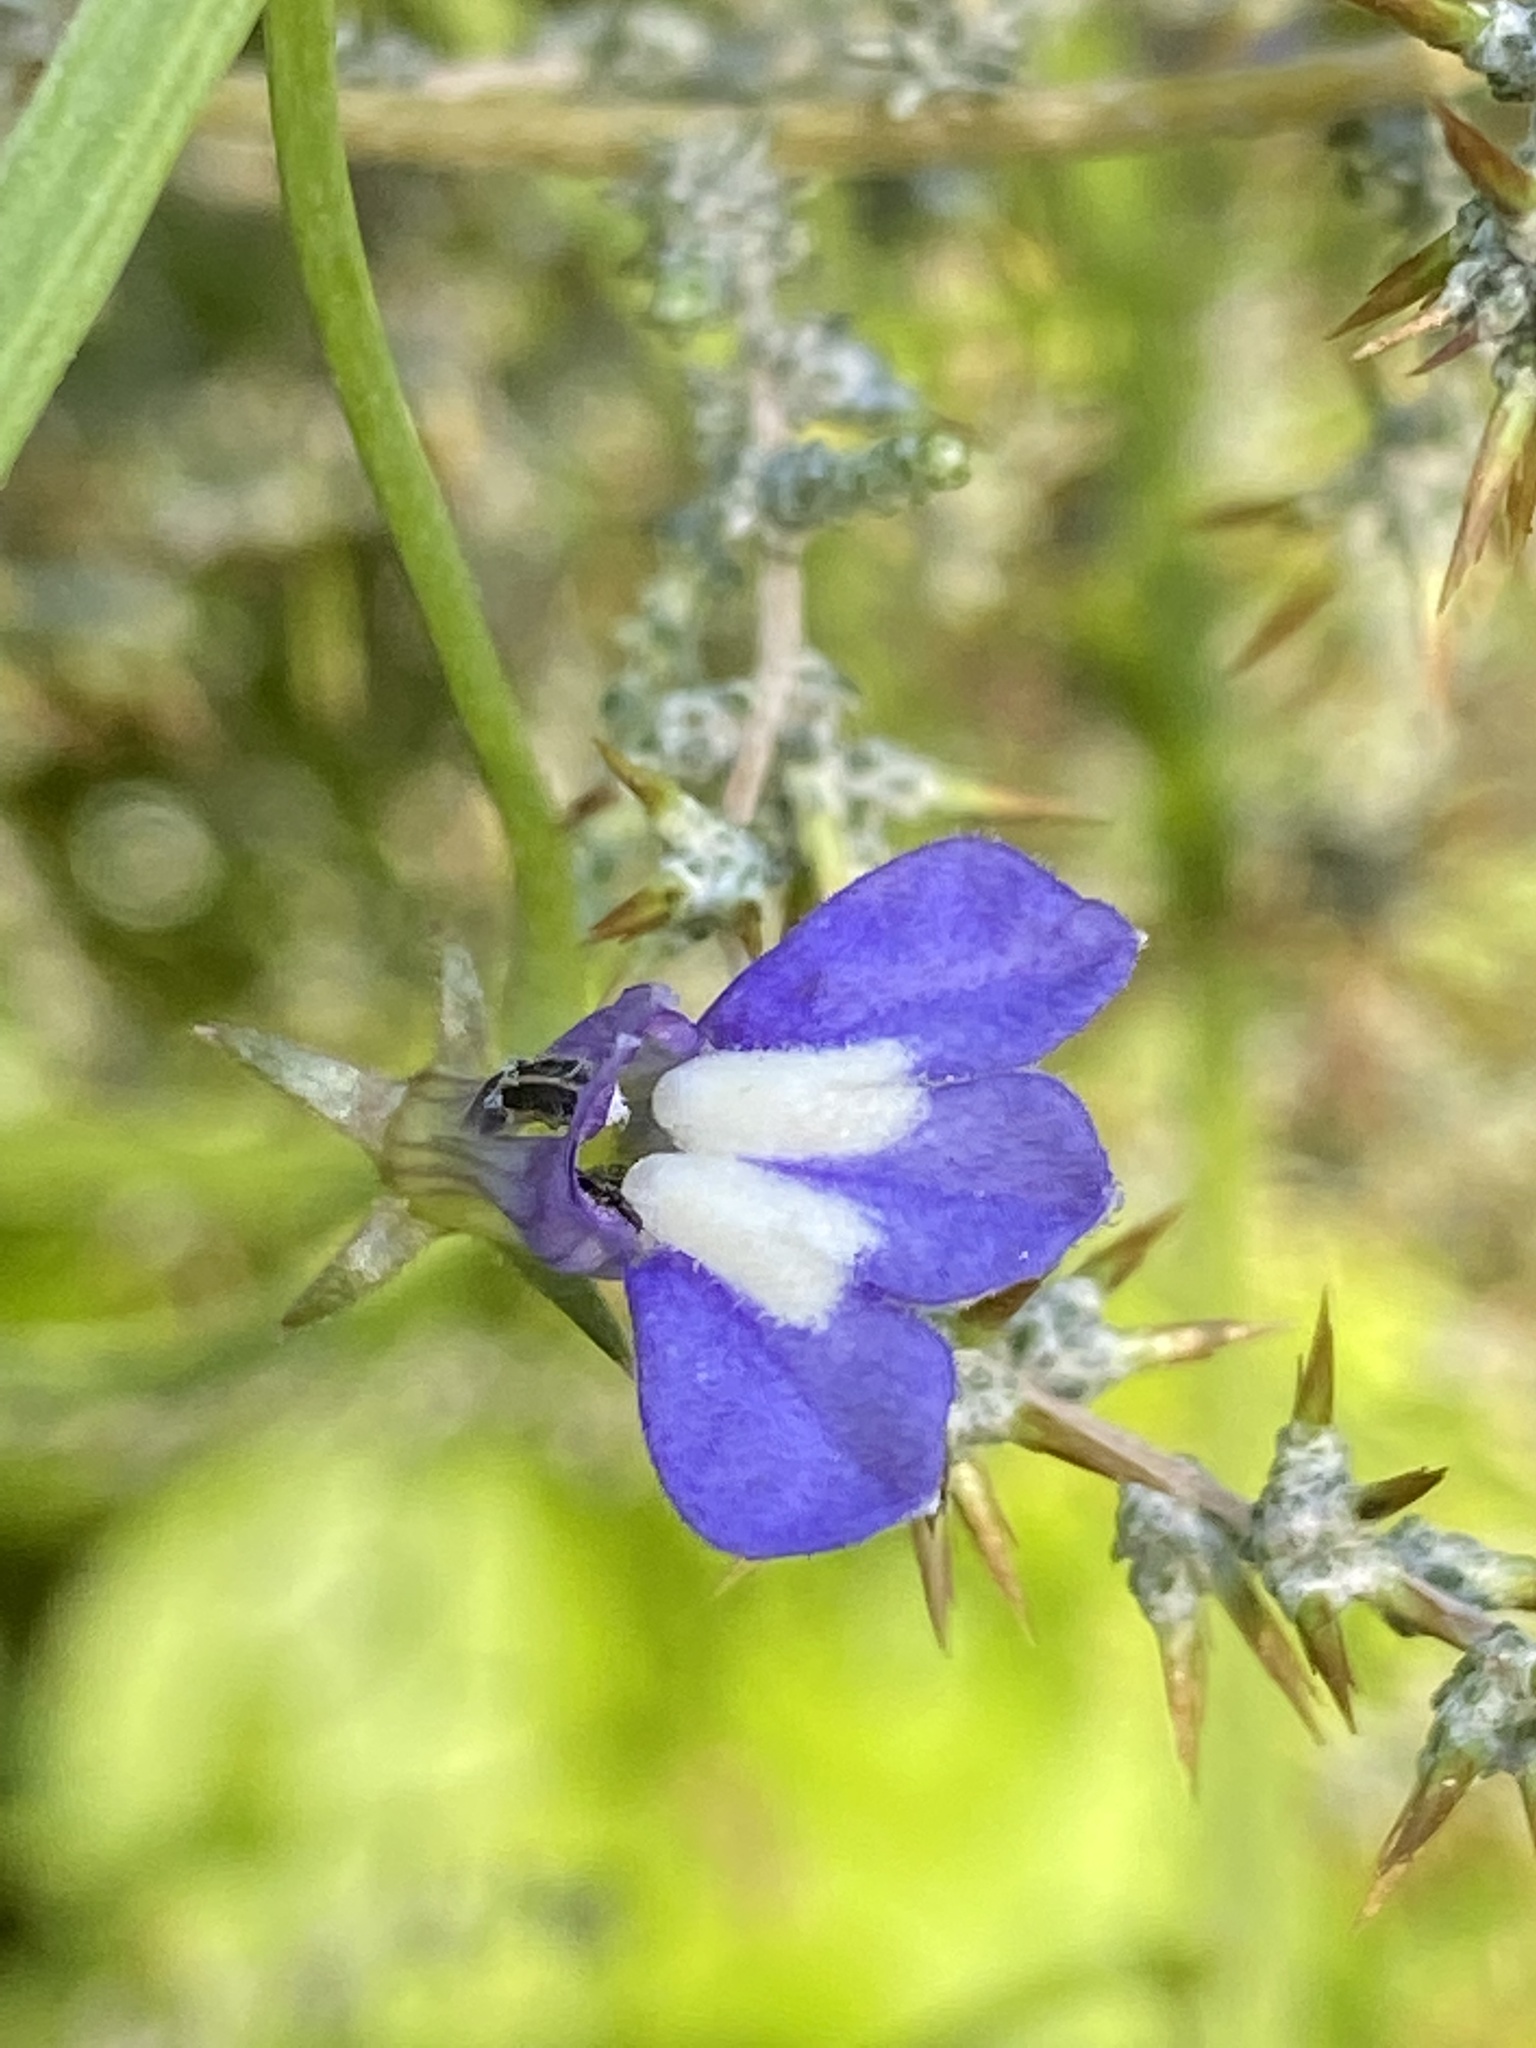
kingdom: Plantae
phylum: Tracheophyta
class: Magnoliopsida
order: Asterales
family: Campanulaceae
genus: Grammatotheca
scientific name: Grammatotheca bergiana
